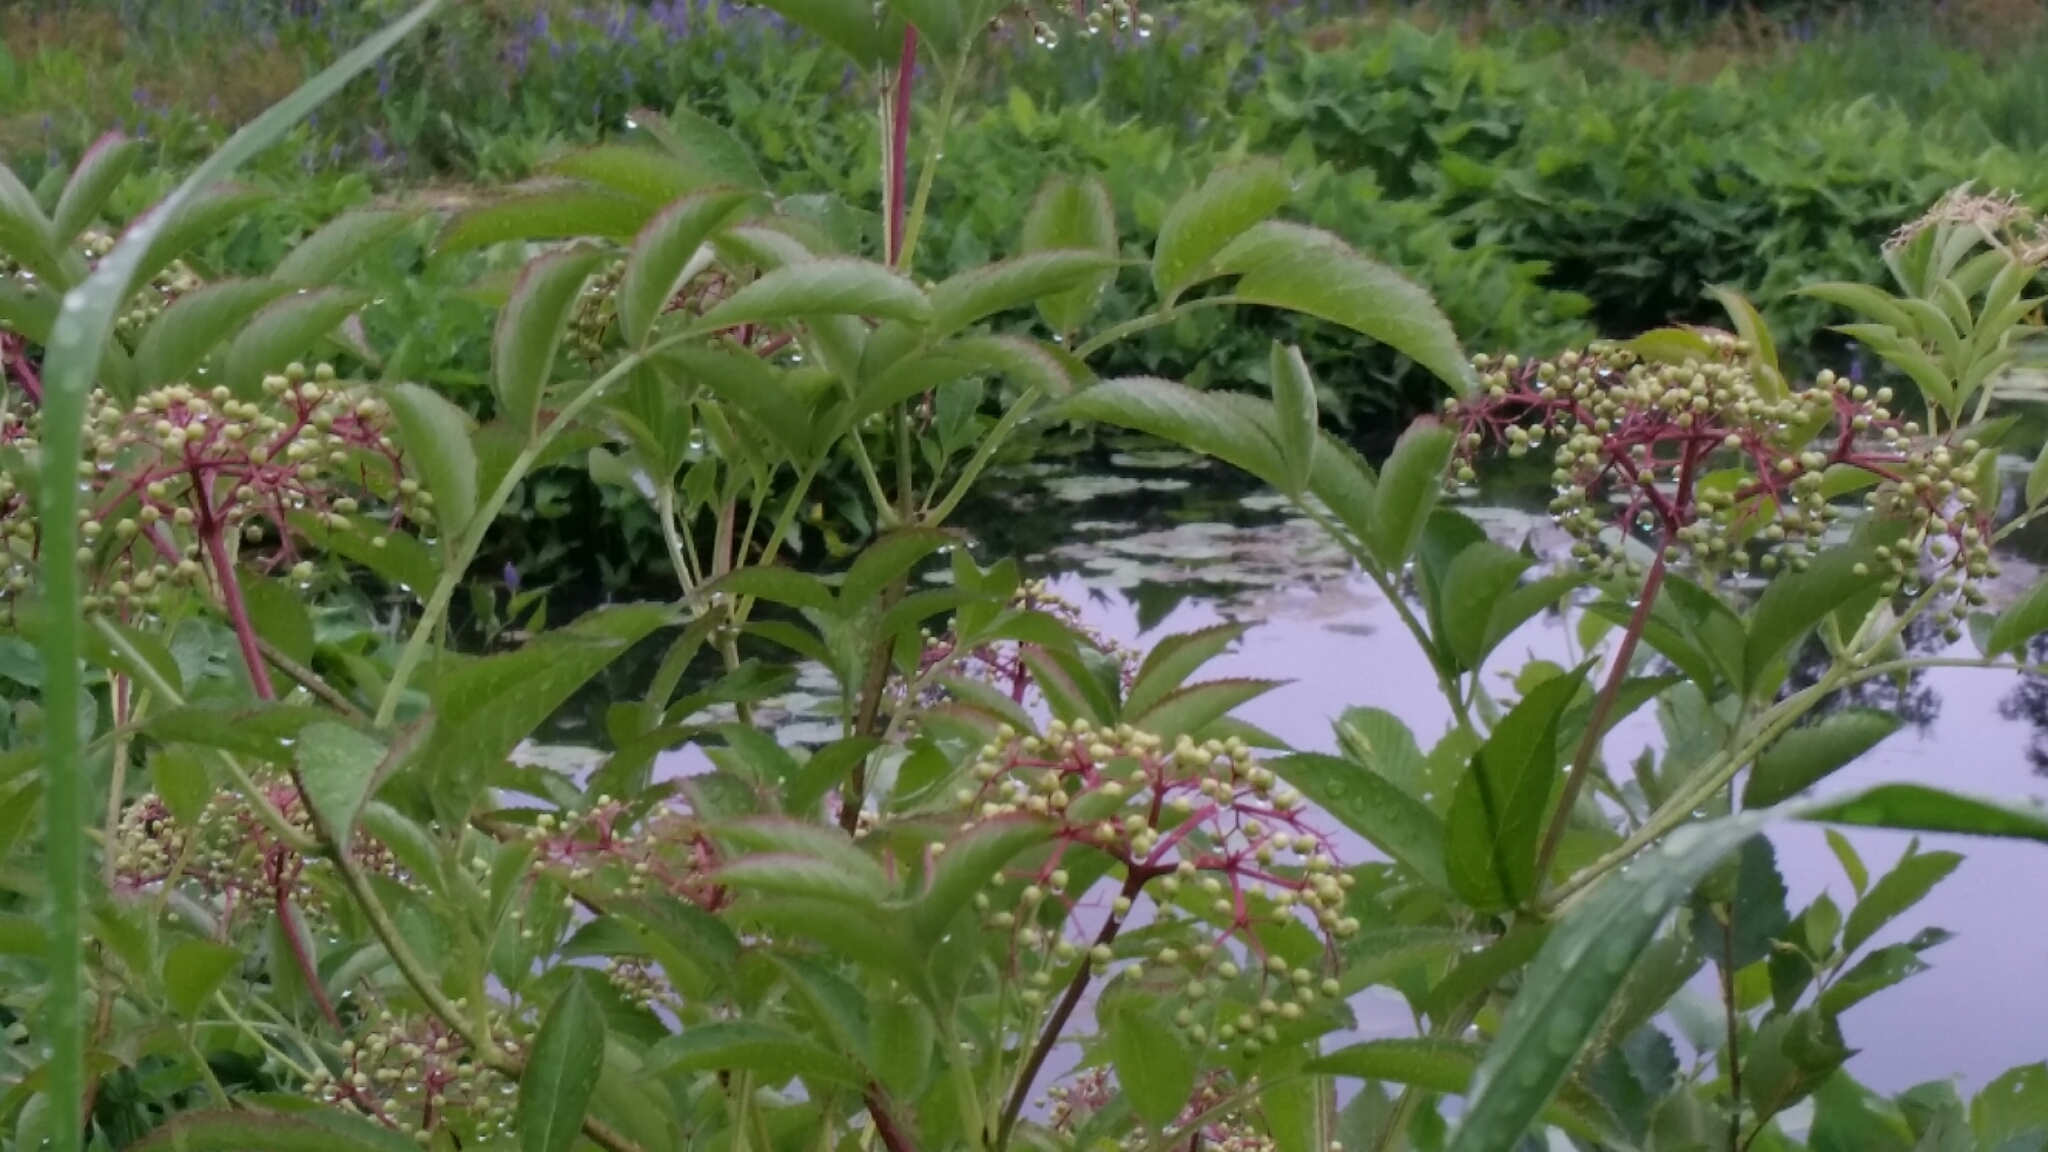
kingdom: Plantae
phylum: Tracheophyta
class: Magnoliopsida
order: Dipsacales
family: Viburnaceae
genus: Sambucus
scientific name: Sambucus canadensis
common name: American elder
